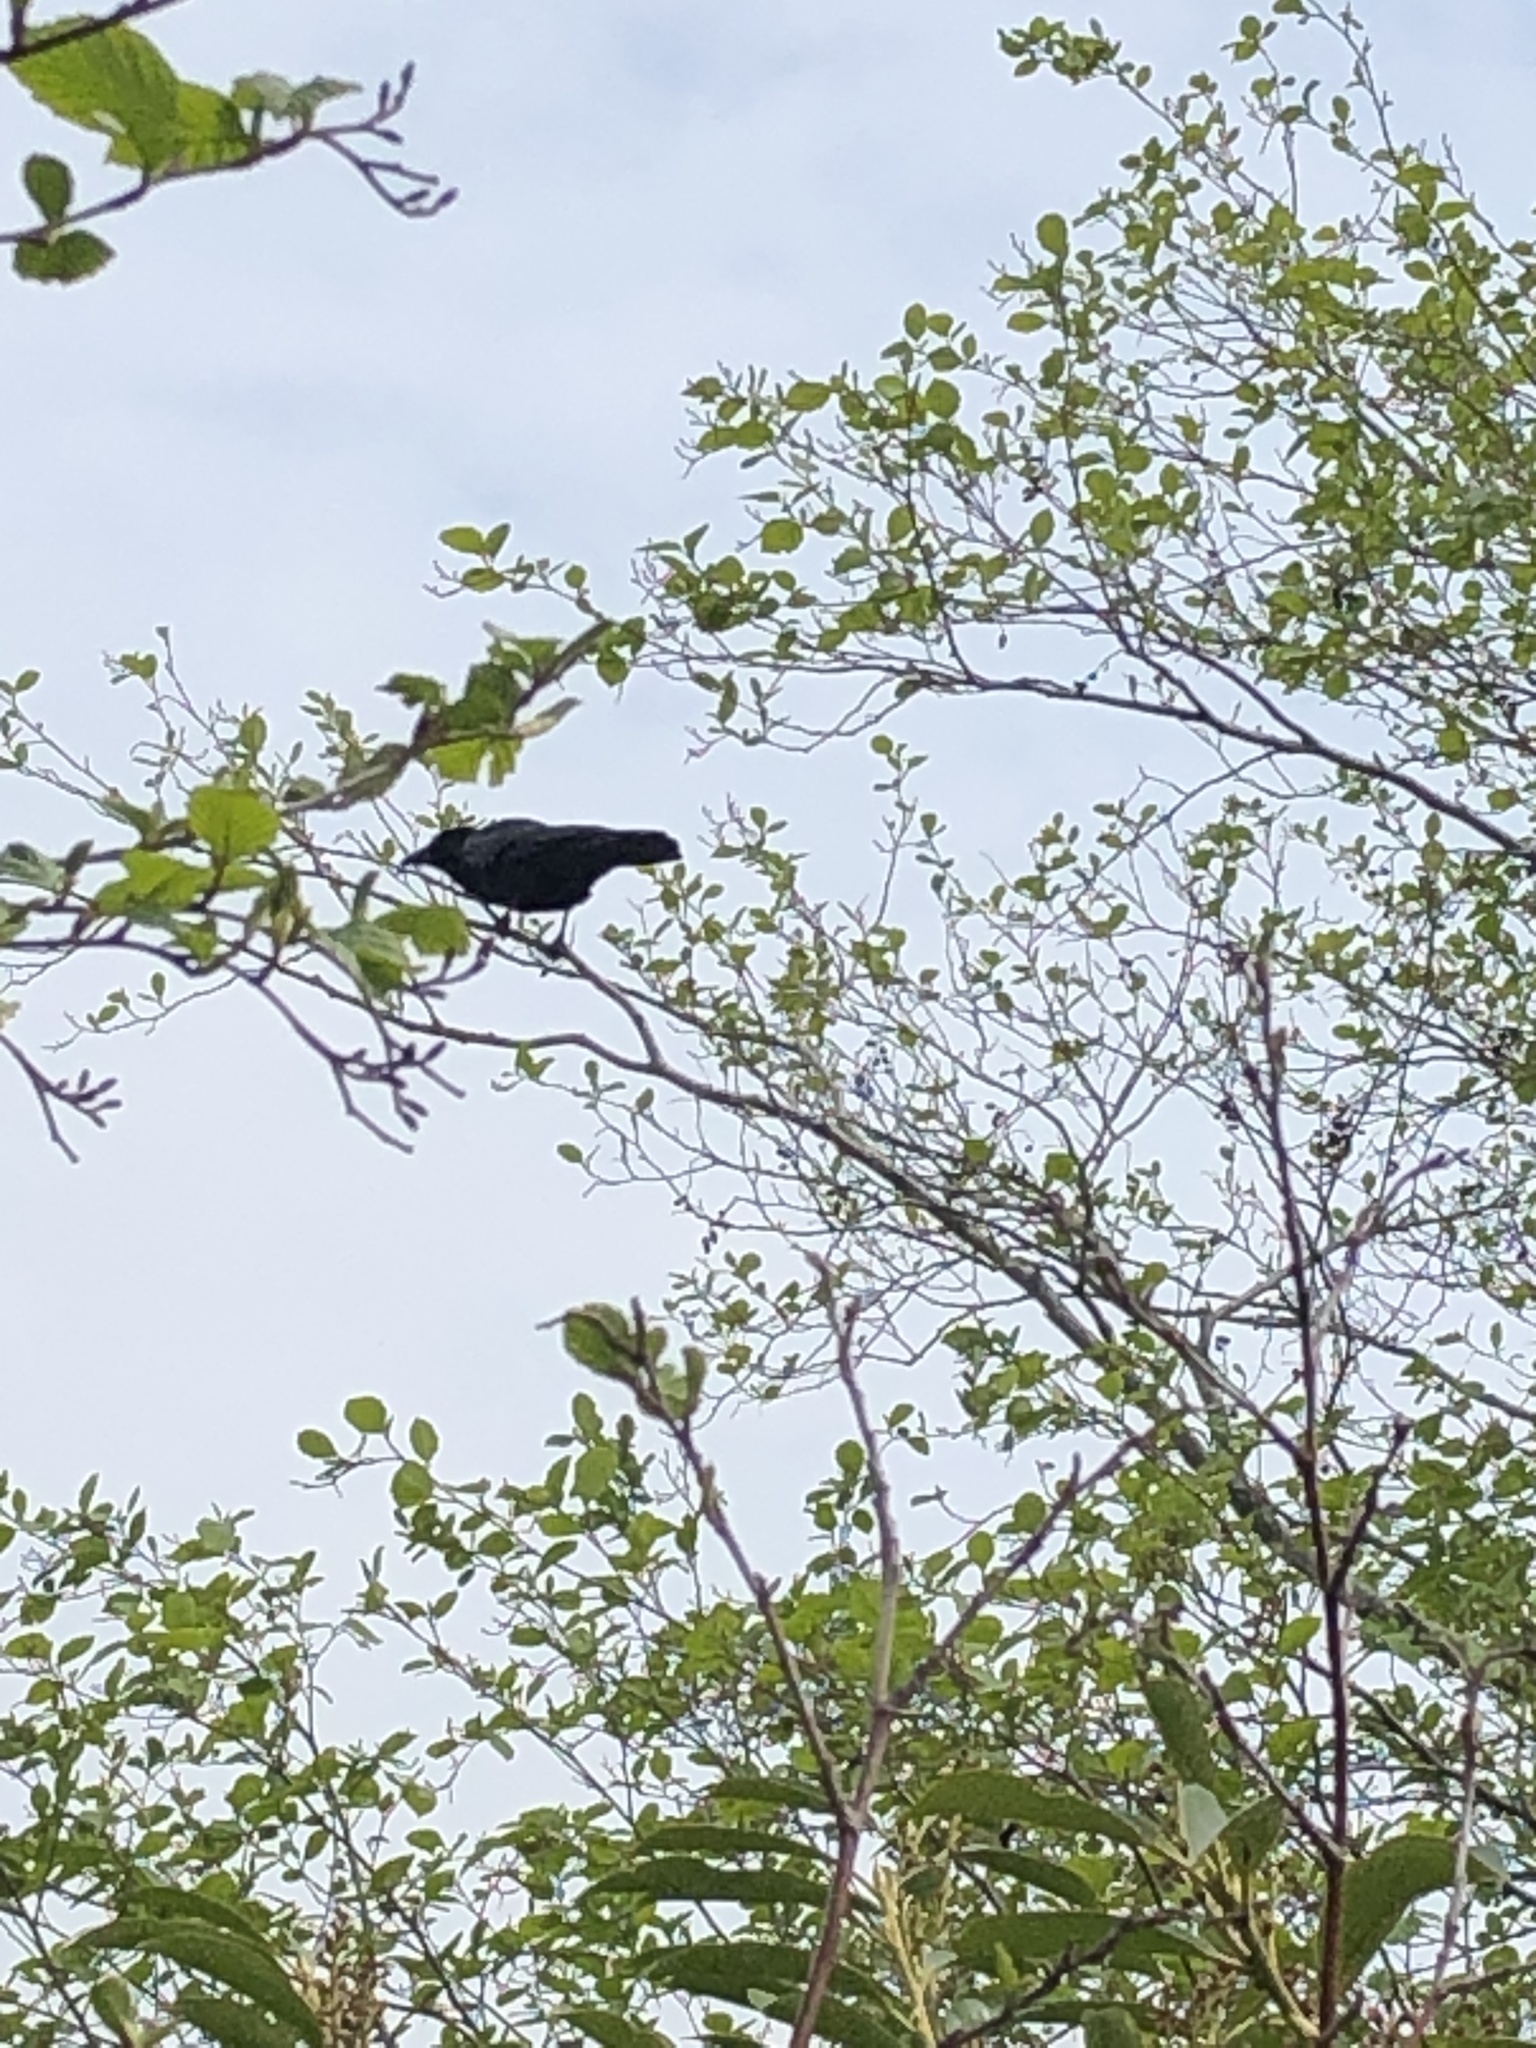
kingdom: Animalia
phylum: Chordata
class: Aves
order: Passeriformes
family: Corvidae
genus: Corvus
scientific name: Corvus corone
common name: Carrion crow
